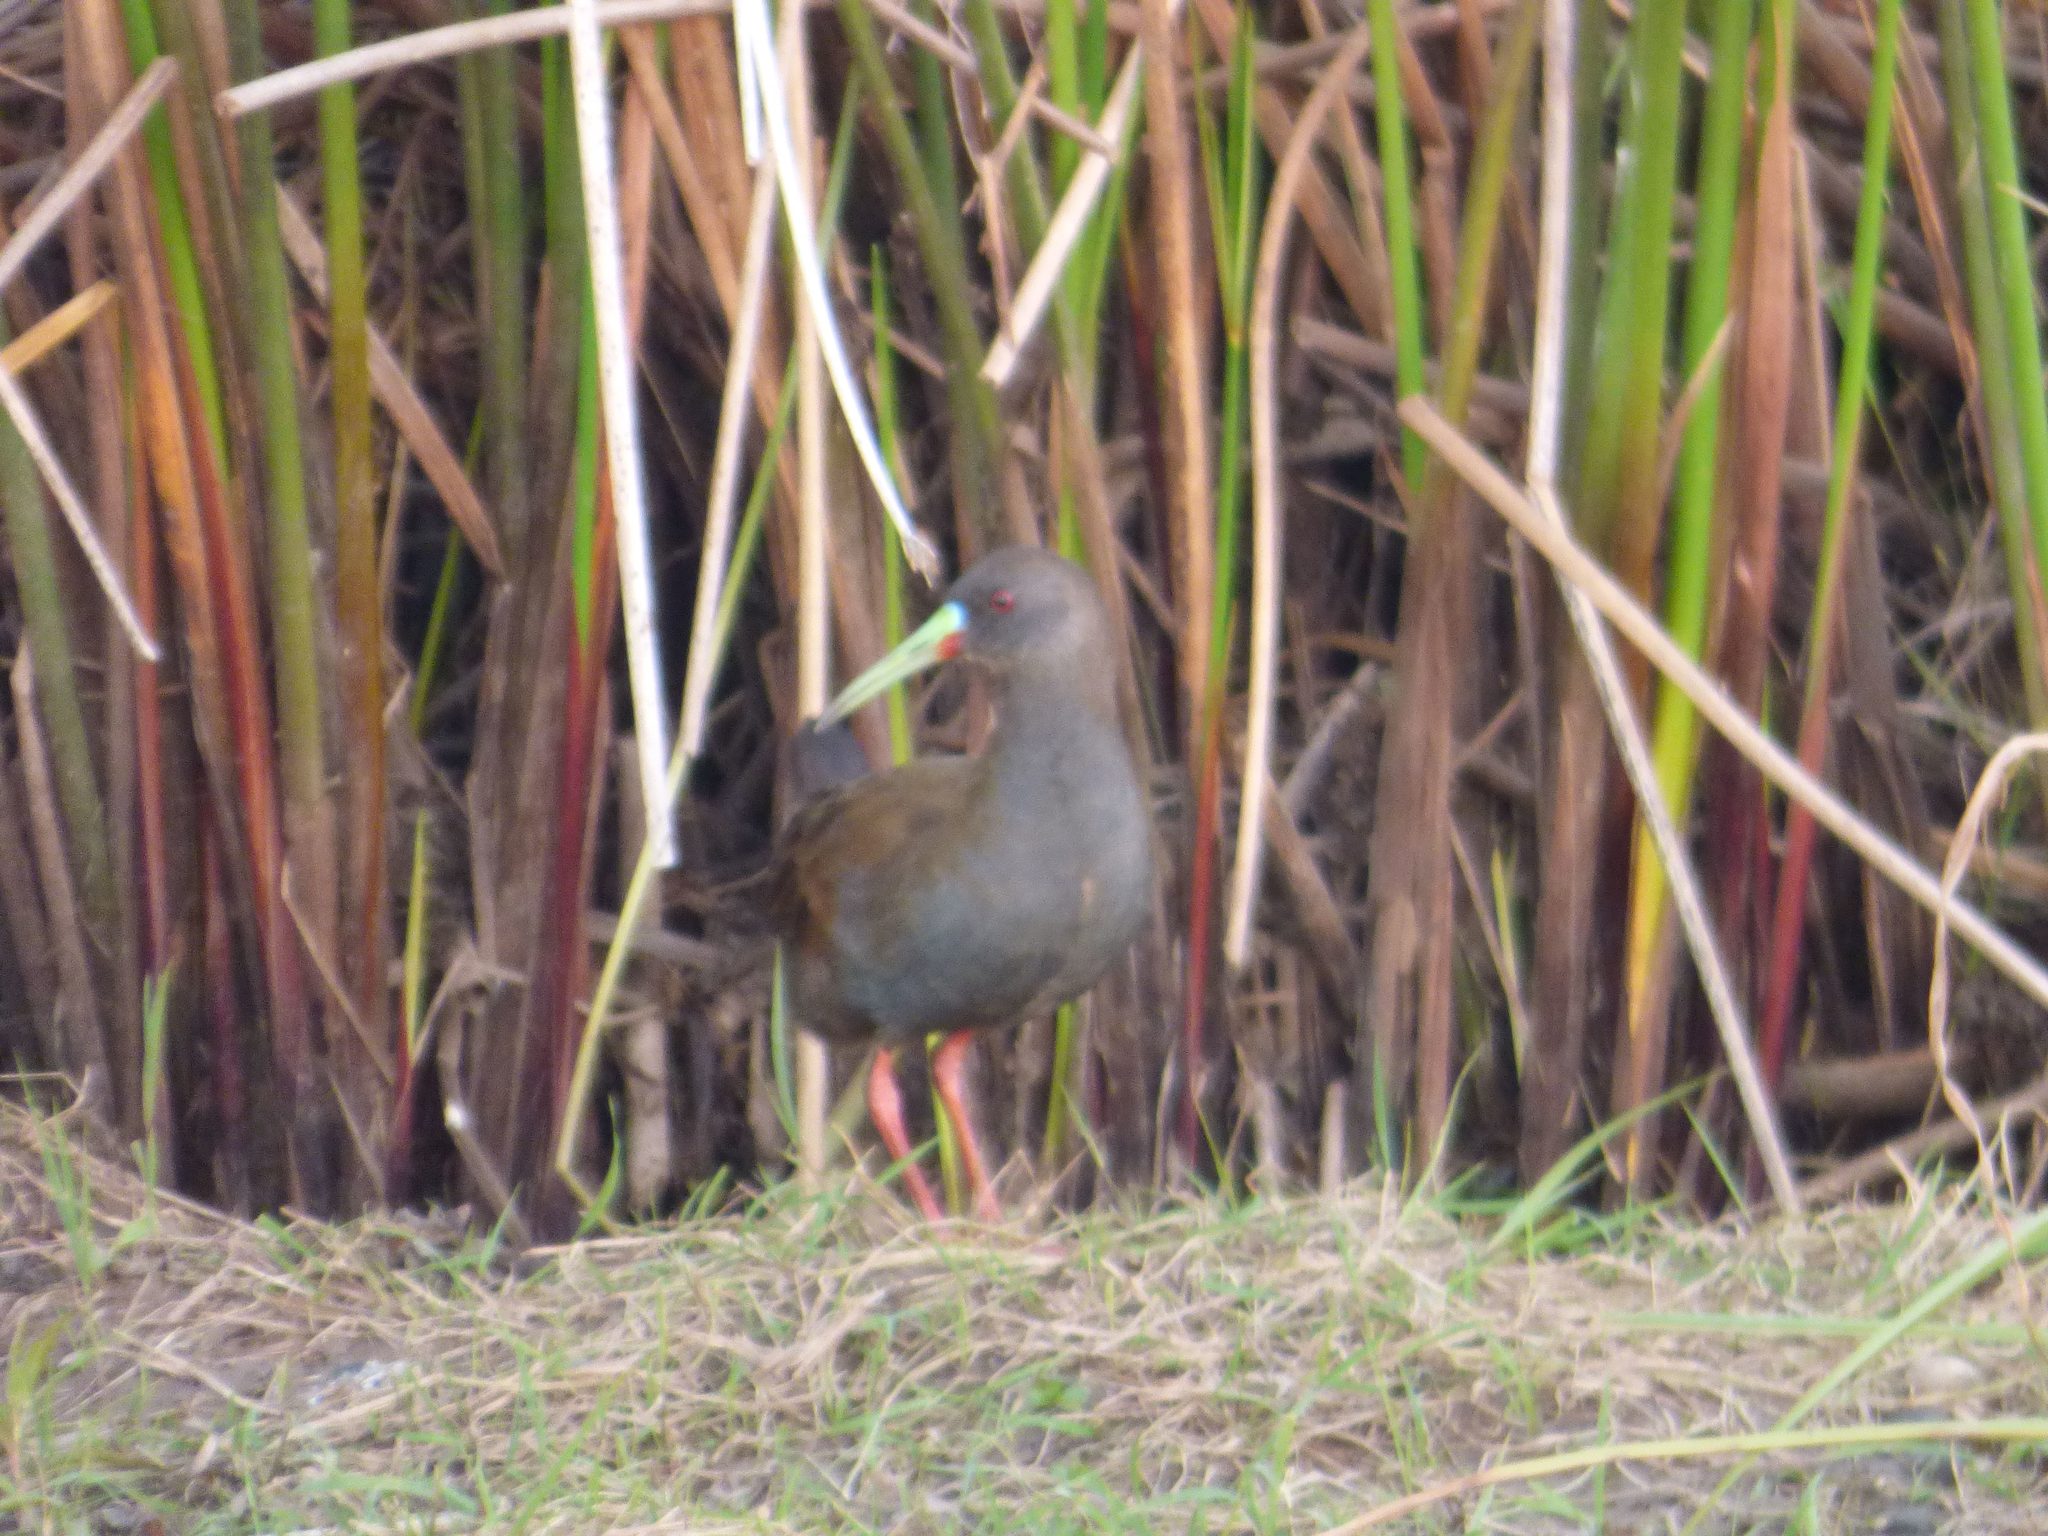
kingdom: Animalia
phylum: Chordata
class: Aves
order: Gruiformes
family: Rallidae
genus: Pardirallus
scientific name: Pardirallus sanguinolentus
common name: Plumbeous rail
